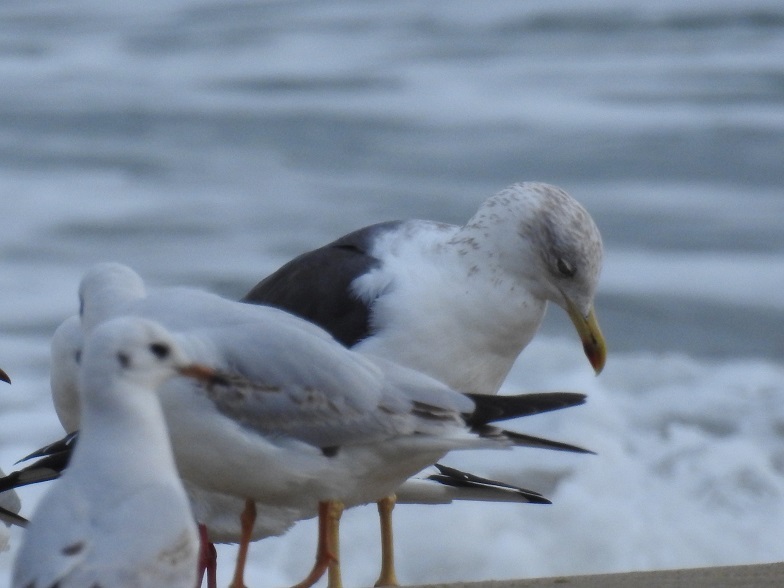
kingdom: Animalia
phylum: Chordata
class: Aves
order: Charadriiformes
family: Laridae
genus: Larus
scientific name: Larus fuscus
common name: Lesser black-backed gull
